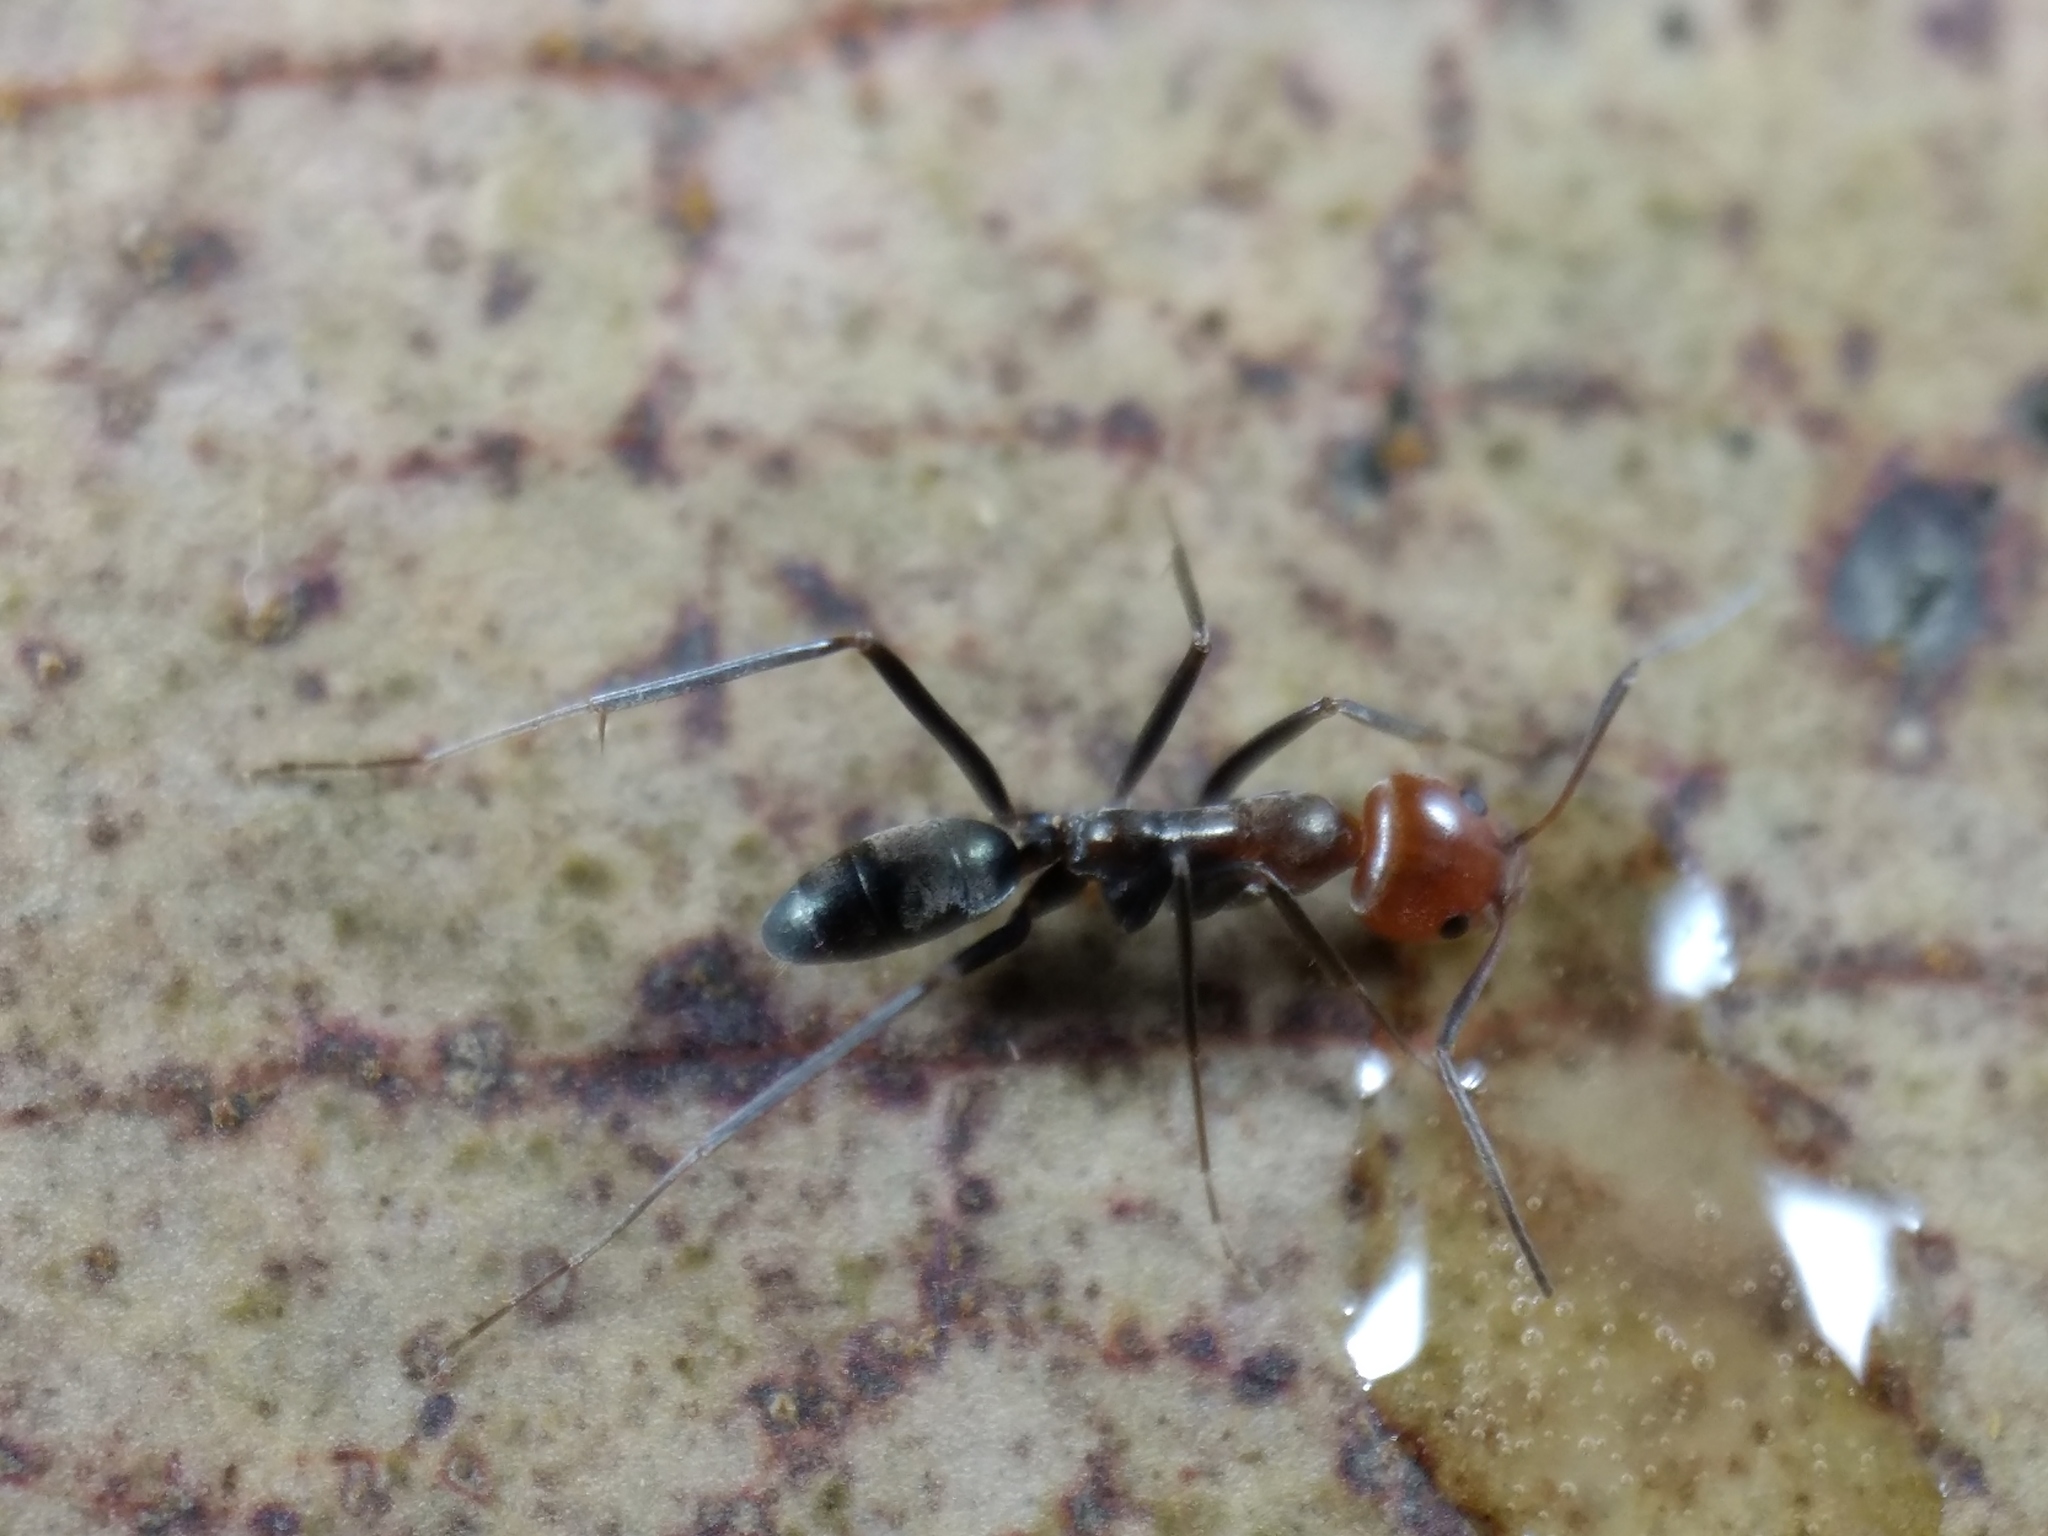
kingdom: Animalia
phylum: Arthropoda
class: Insecta
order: Hymenoptera
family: Formicidae
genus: Iridomyrmex
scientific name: Iridomyrmex
